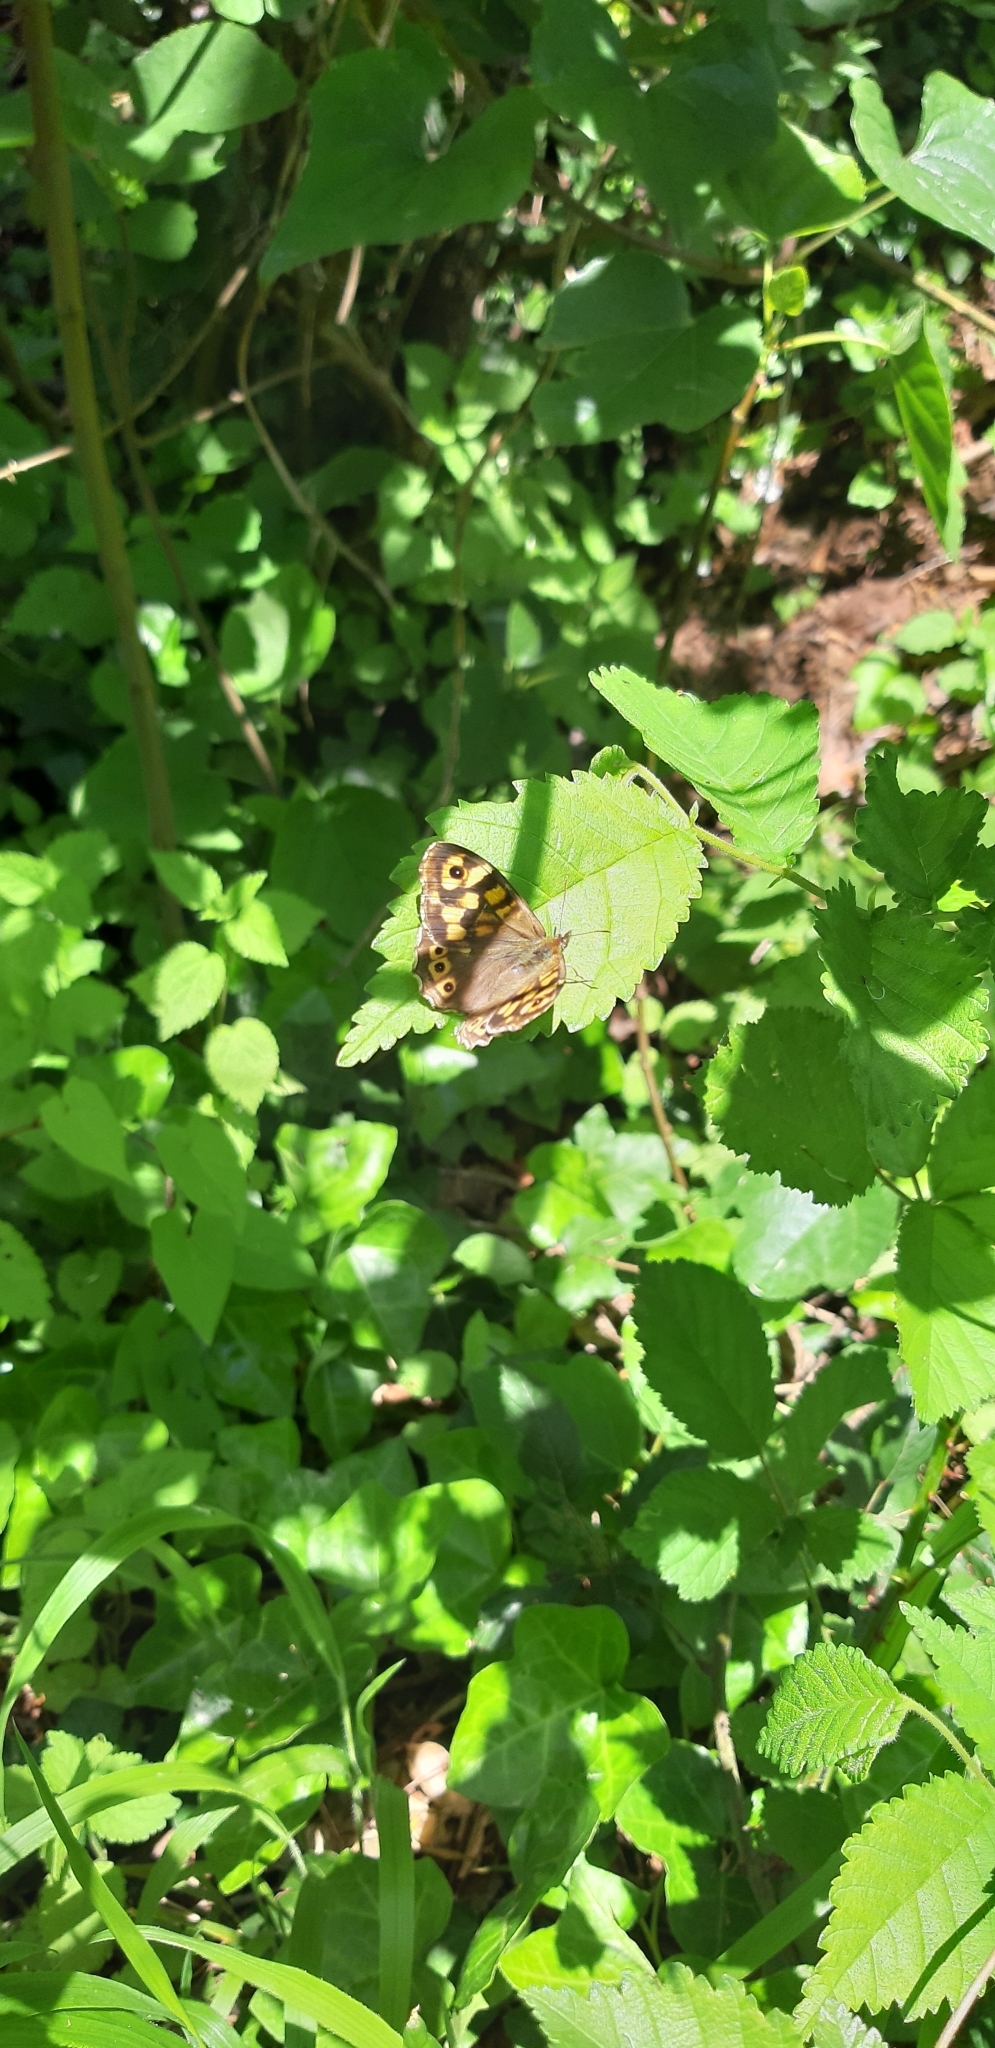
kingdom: Animalia
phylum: Arthropoda
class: Insecta
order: Lepidoptera
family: Nymphalidae
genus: Pararge
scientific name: Pararge aegeria
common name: Speckled wood
